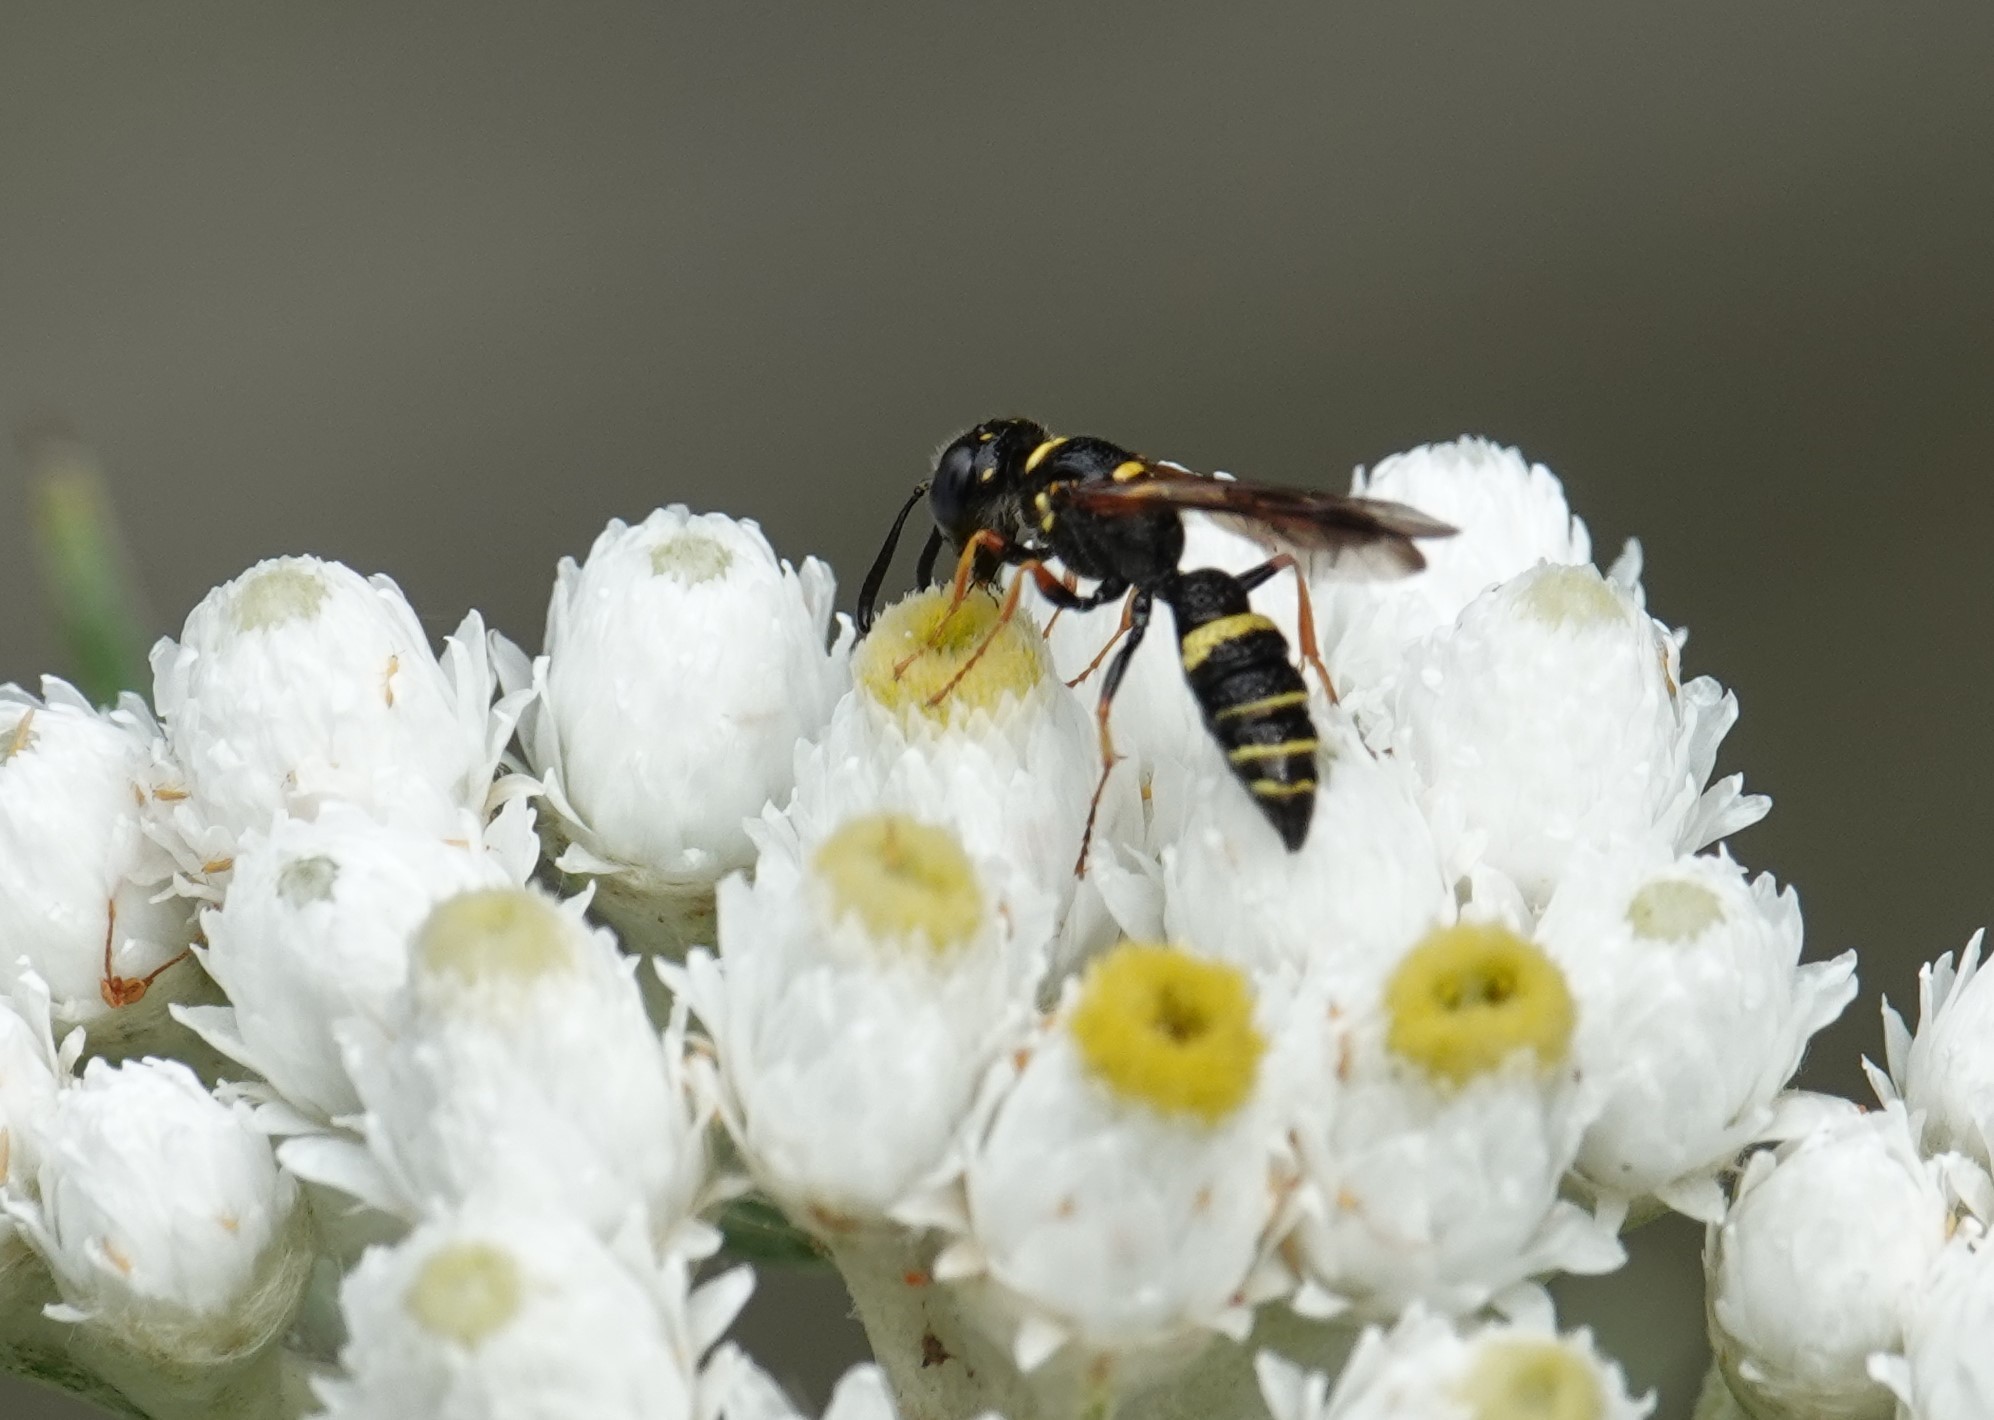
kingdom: Animalia
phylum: Arthropoda
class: Insecta
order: Hymenoptera
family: Crabronidae
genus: Philanthus
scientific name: Philanthus gibbosus
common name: Humped beewolf
